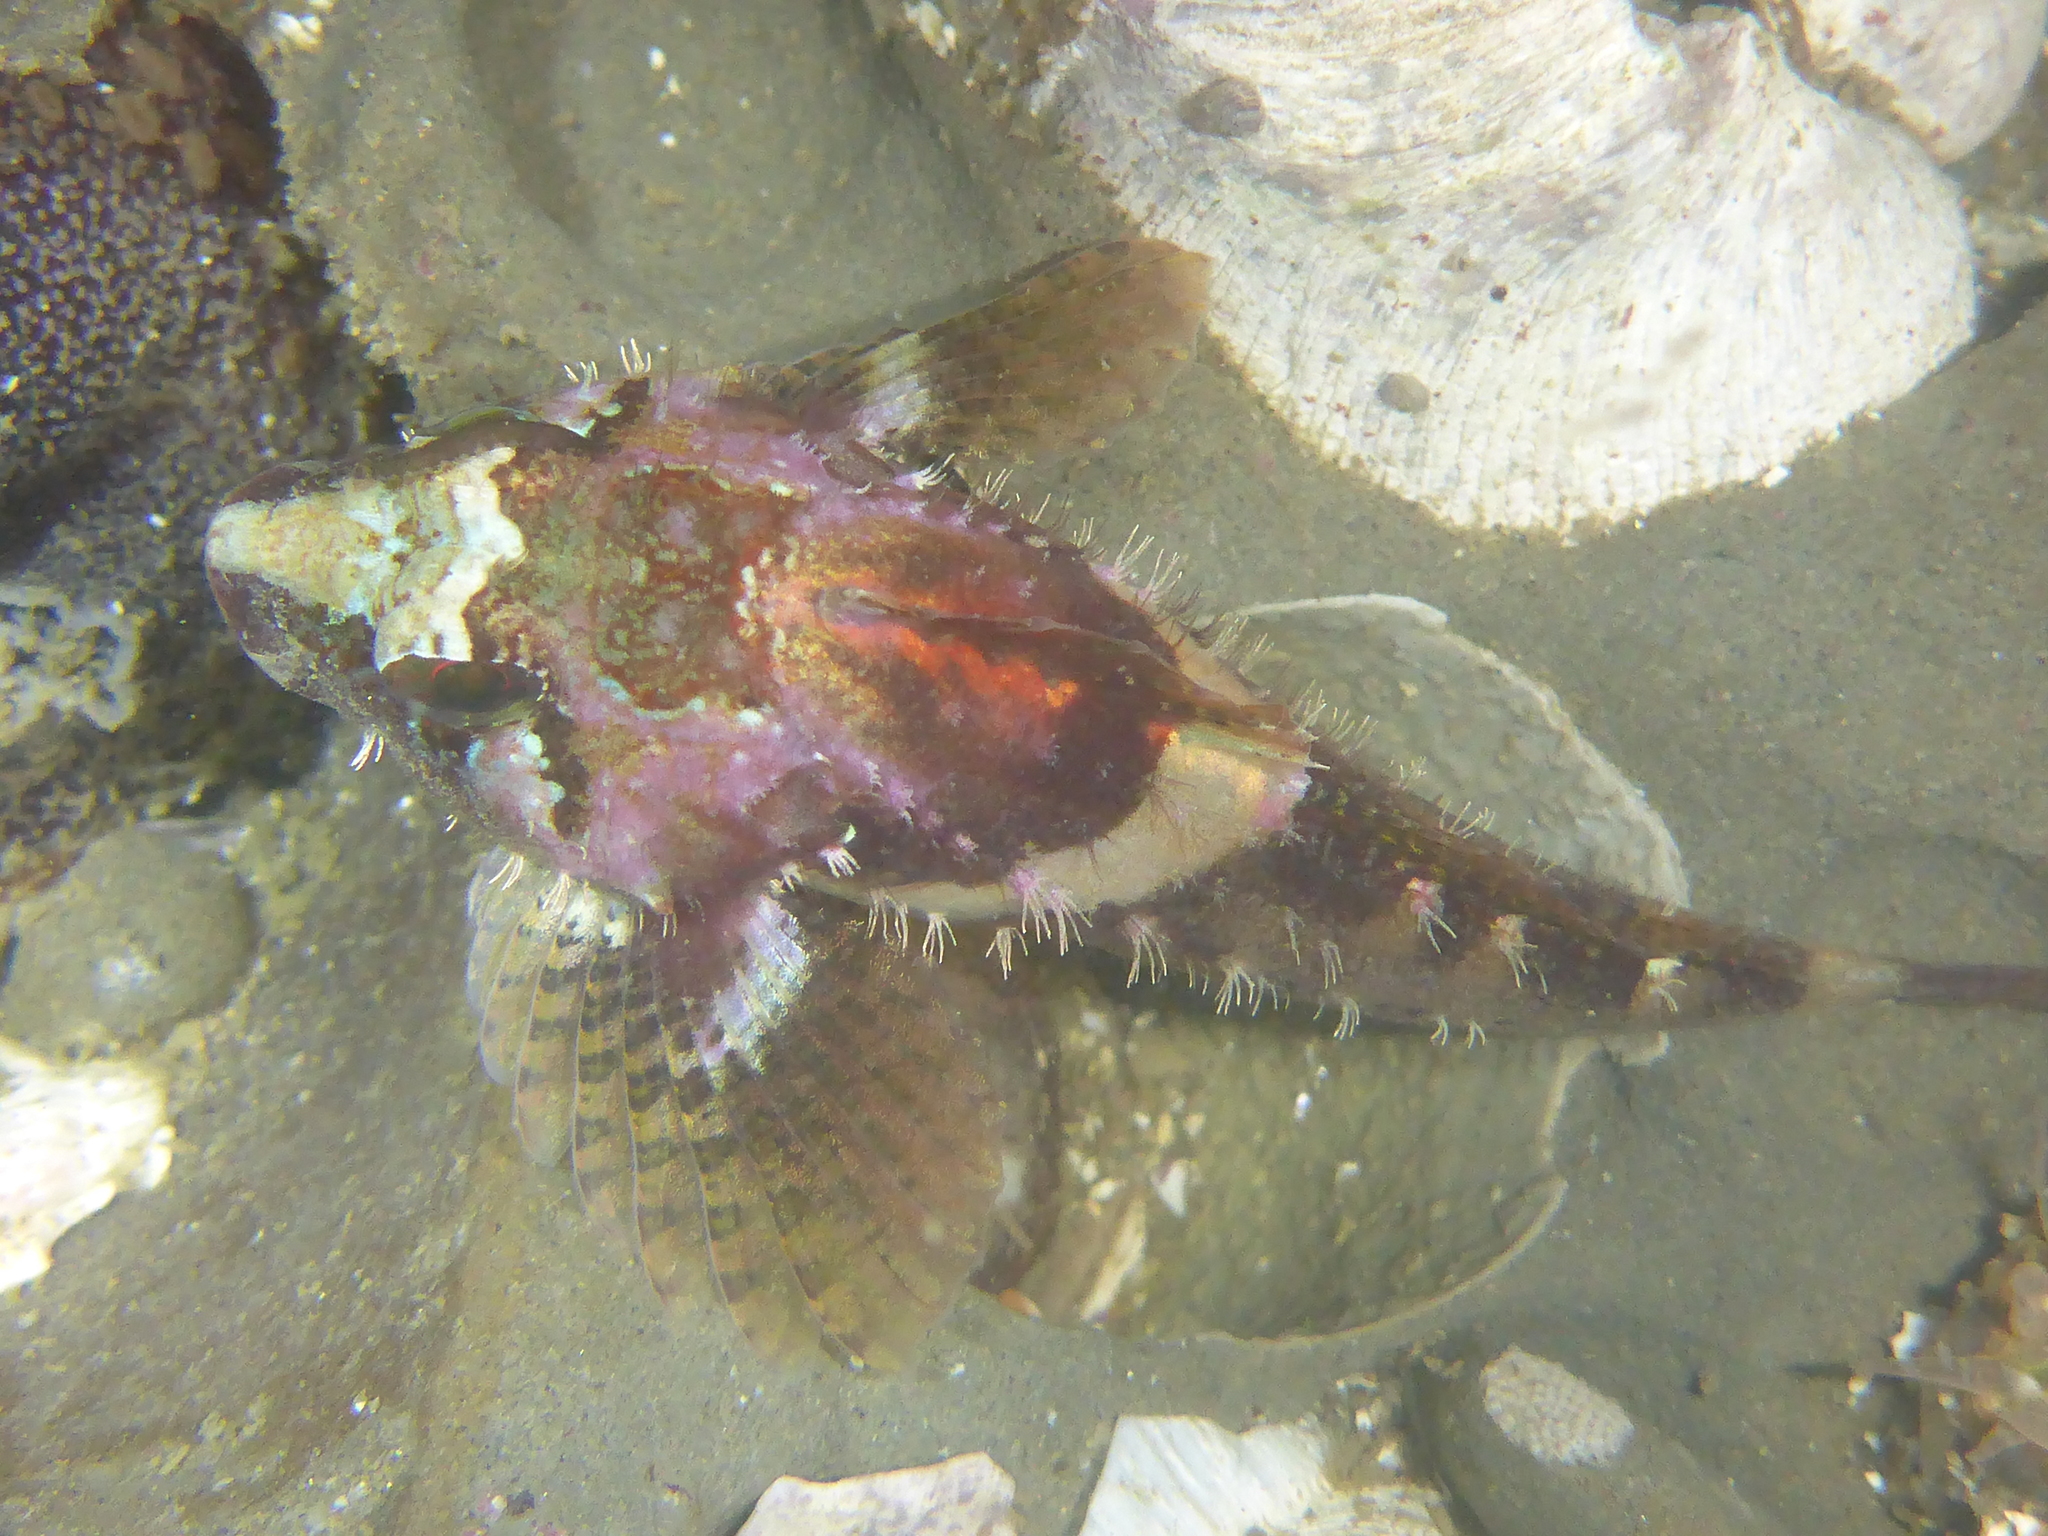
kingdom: Animalia
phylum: Chordata
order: Scorpaeniformes
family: Cottidae
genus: Oligocottus
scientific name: Oligocottus rubellio
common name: Rosy sculpin
